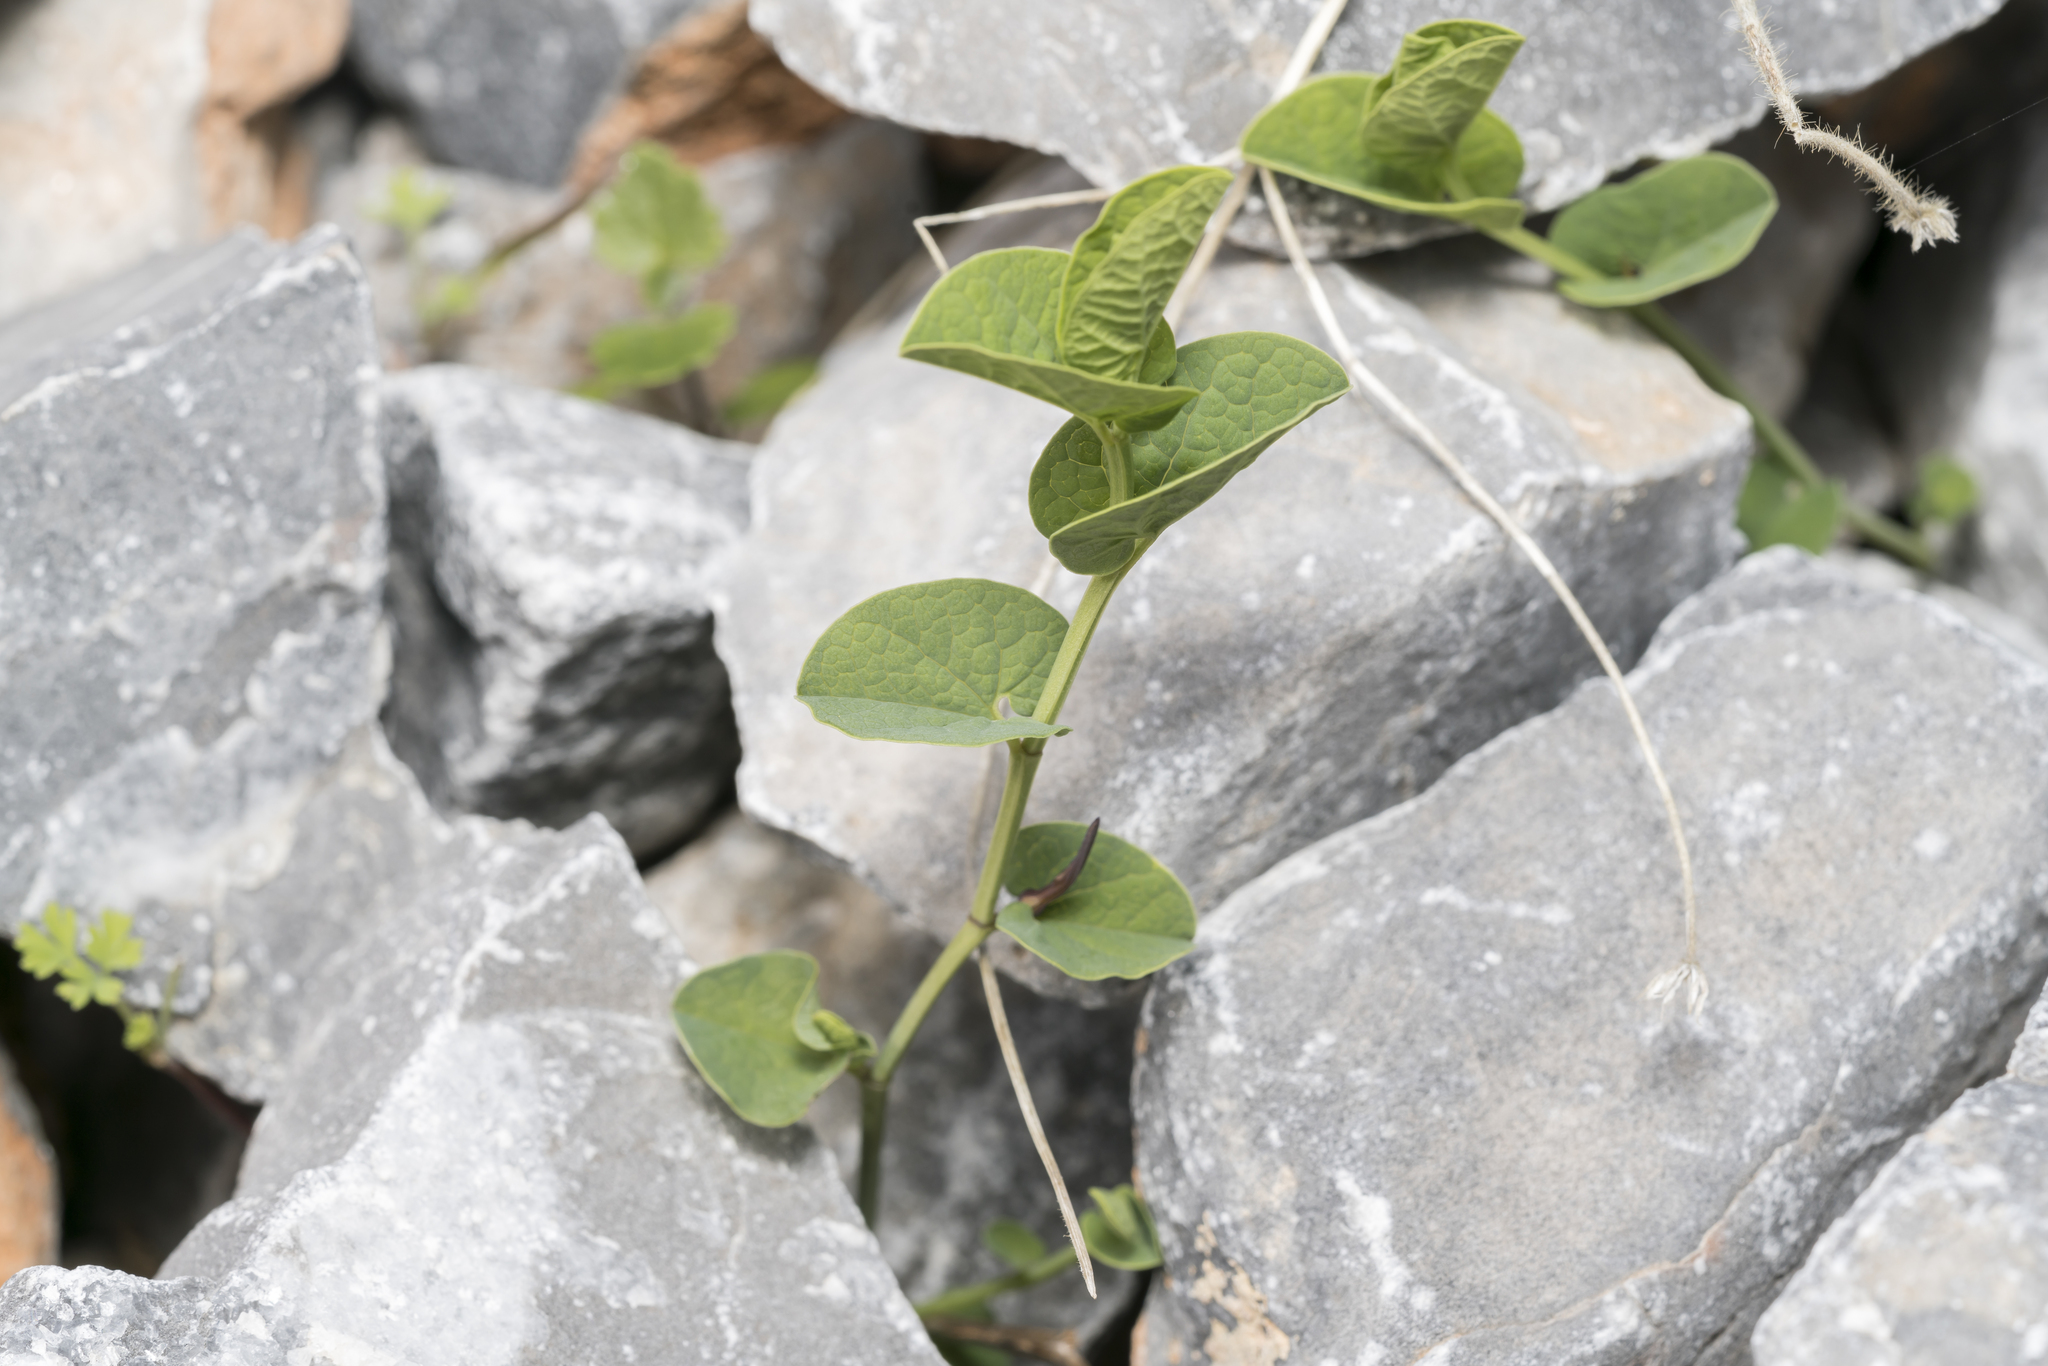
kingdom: Plantae
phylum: Tracheophyta
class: Magnoliopsida
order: Piperales
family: Aristolochiaceae
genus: Aristolochia
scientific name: Aristolochia parvifolia
